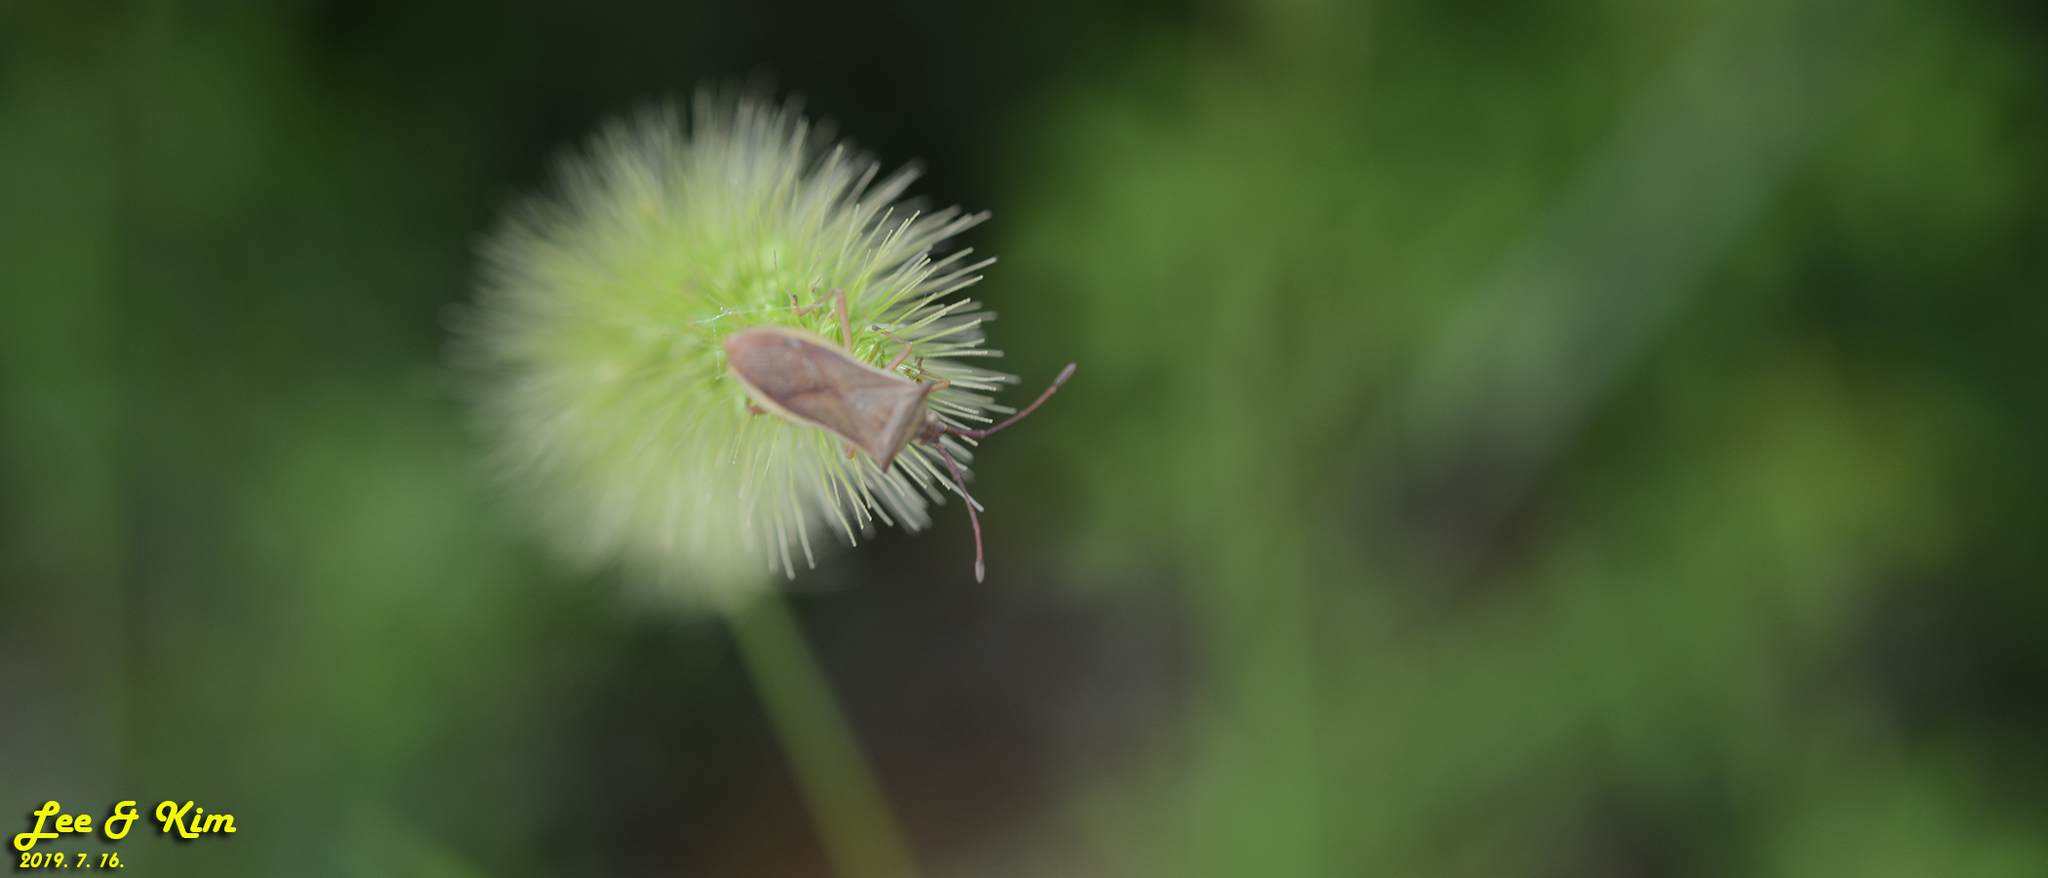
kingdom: Animalia
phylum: Arthropoda
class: Insecta
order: Hemiptera
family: Coreidae
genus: Cletus
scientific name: Cletus punctiger
